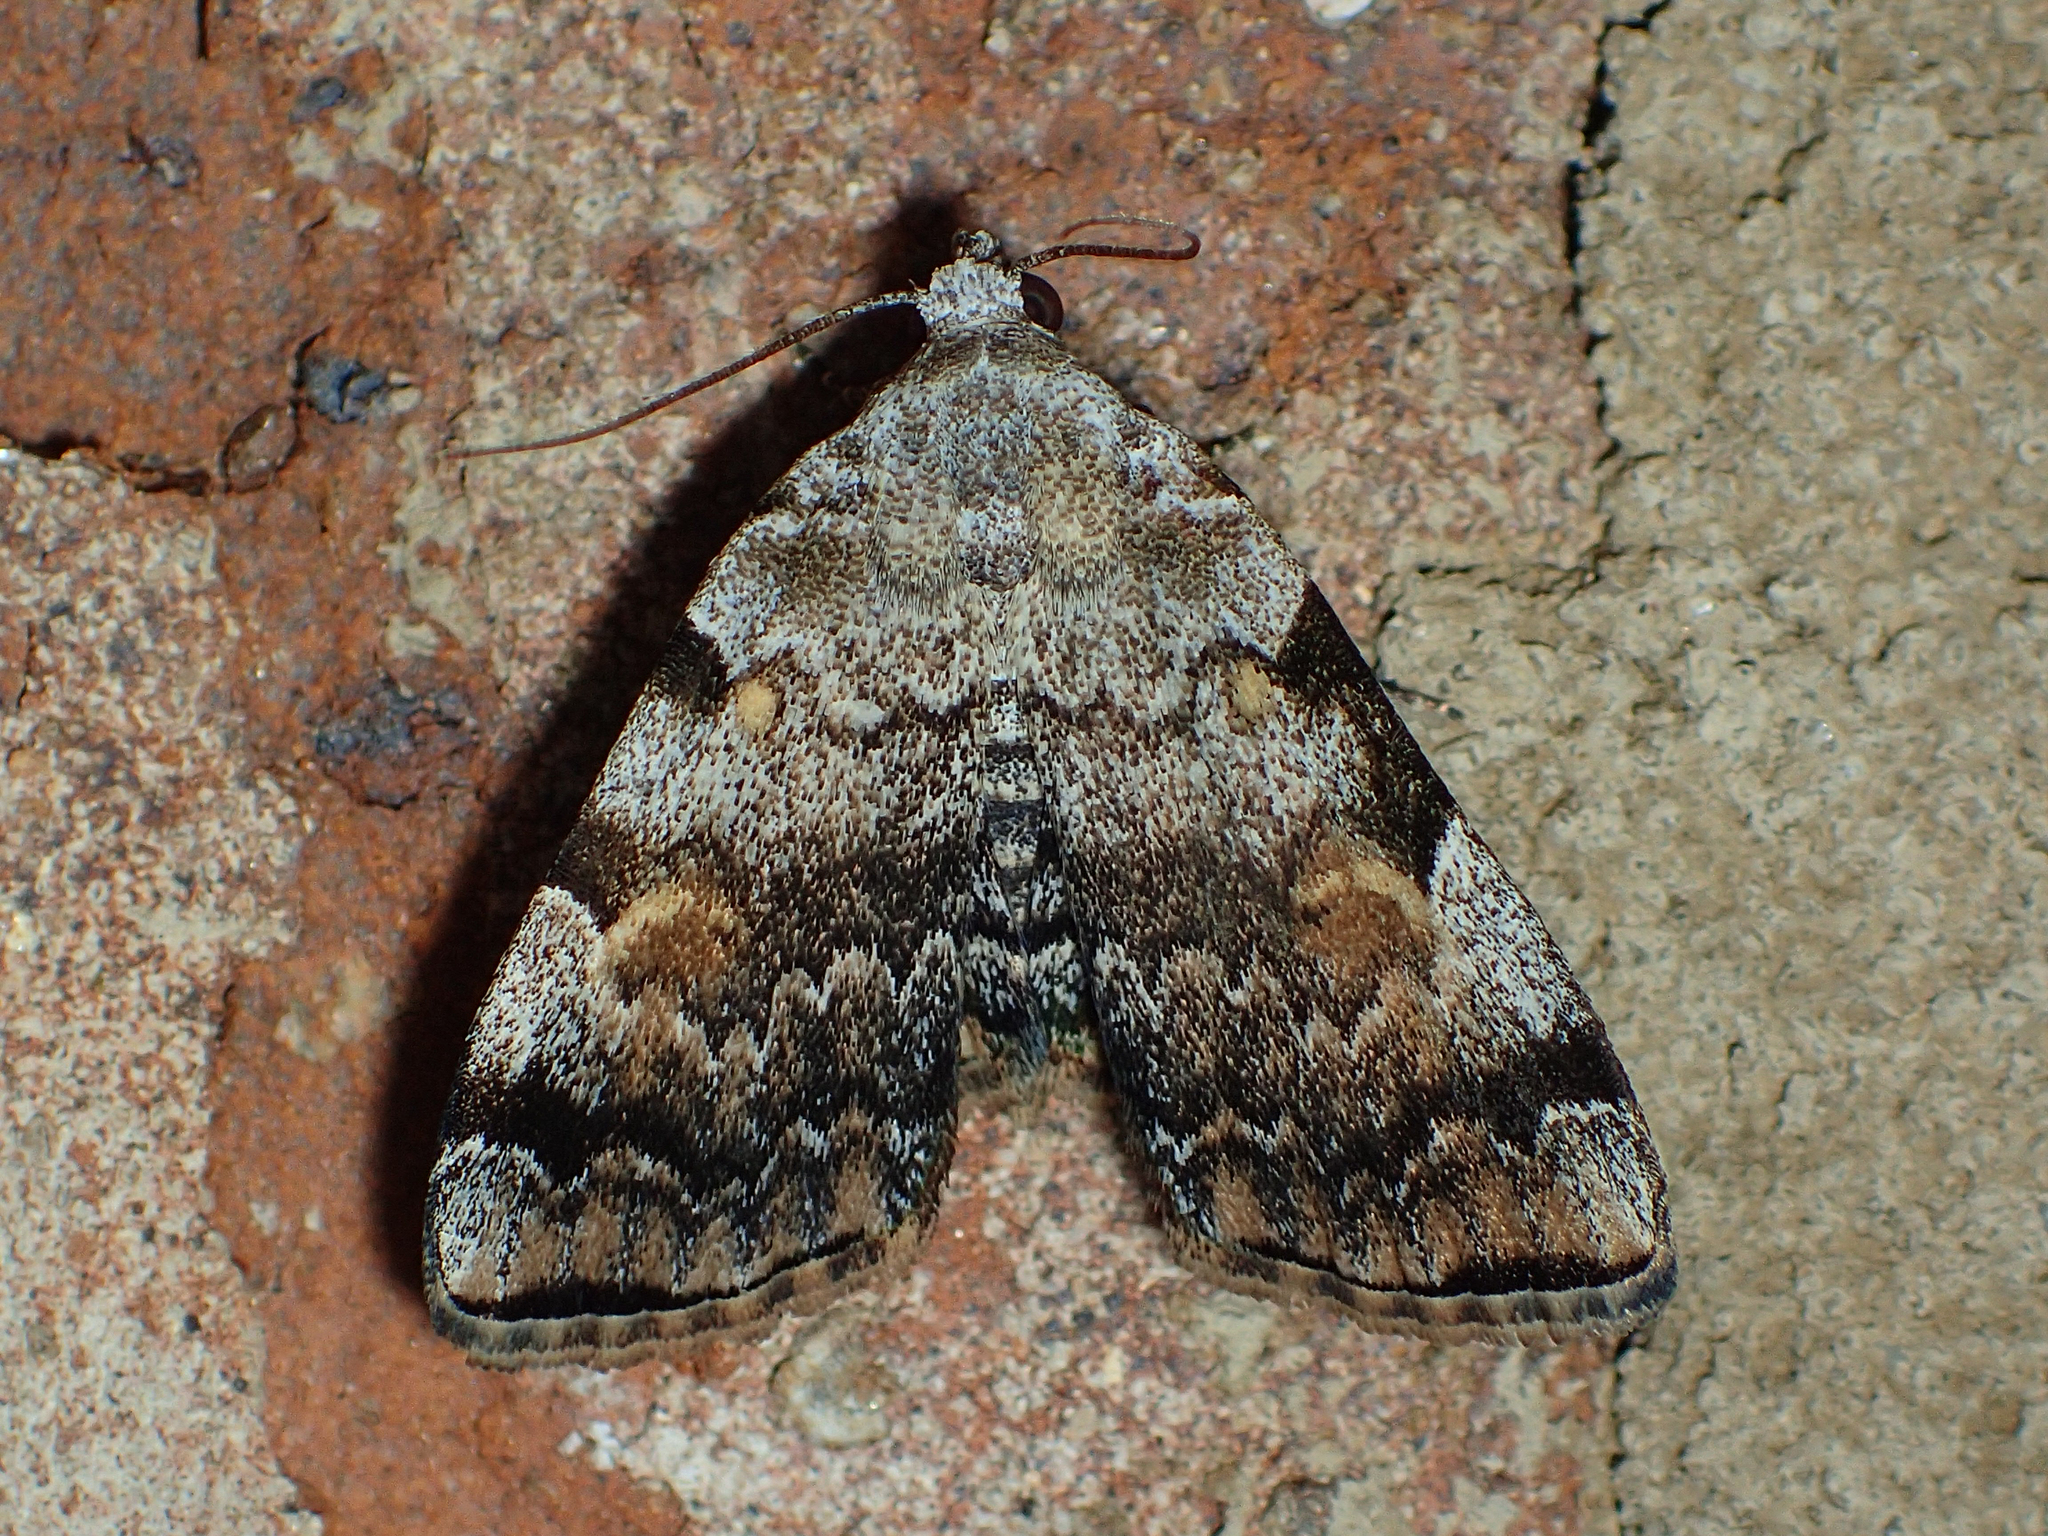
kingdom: Animalia
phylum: Arthropoda
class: Insecta
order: Lepidoptera
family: Erebidae
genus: Idia
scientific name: Idia americalis
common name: American idia moth
